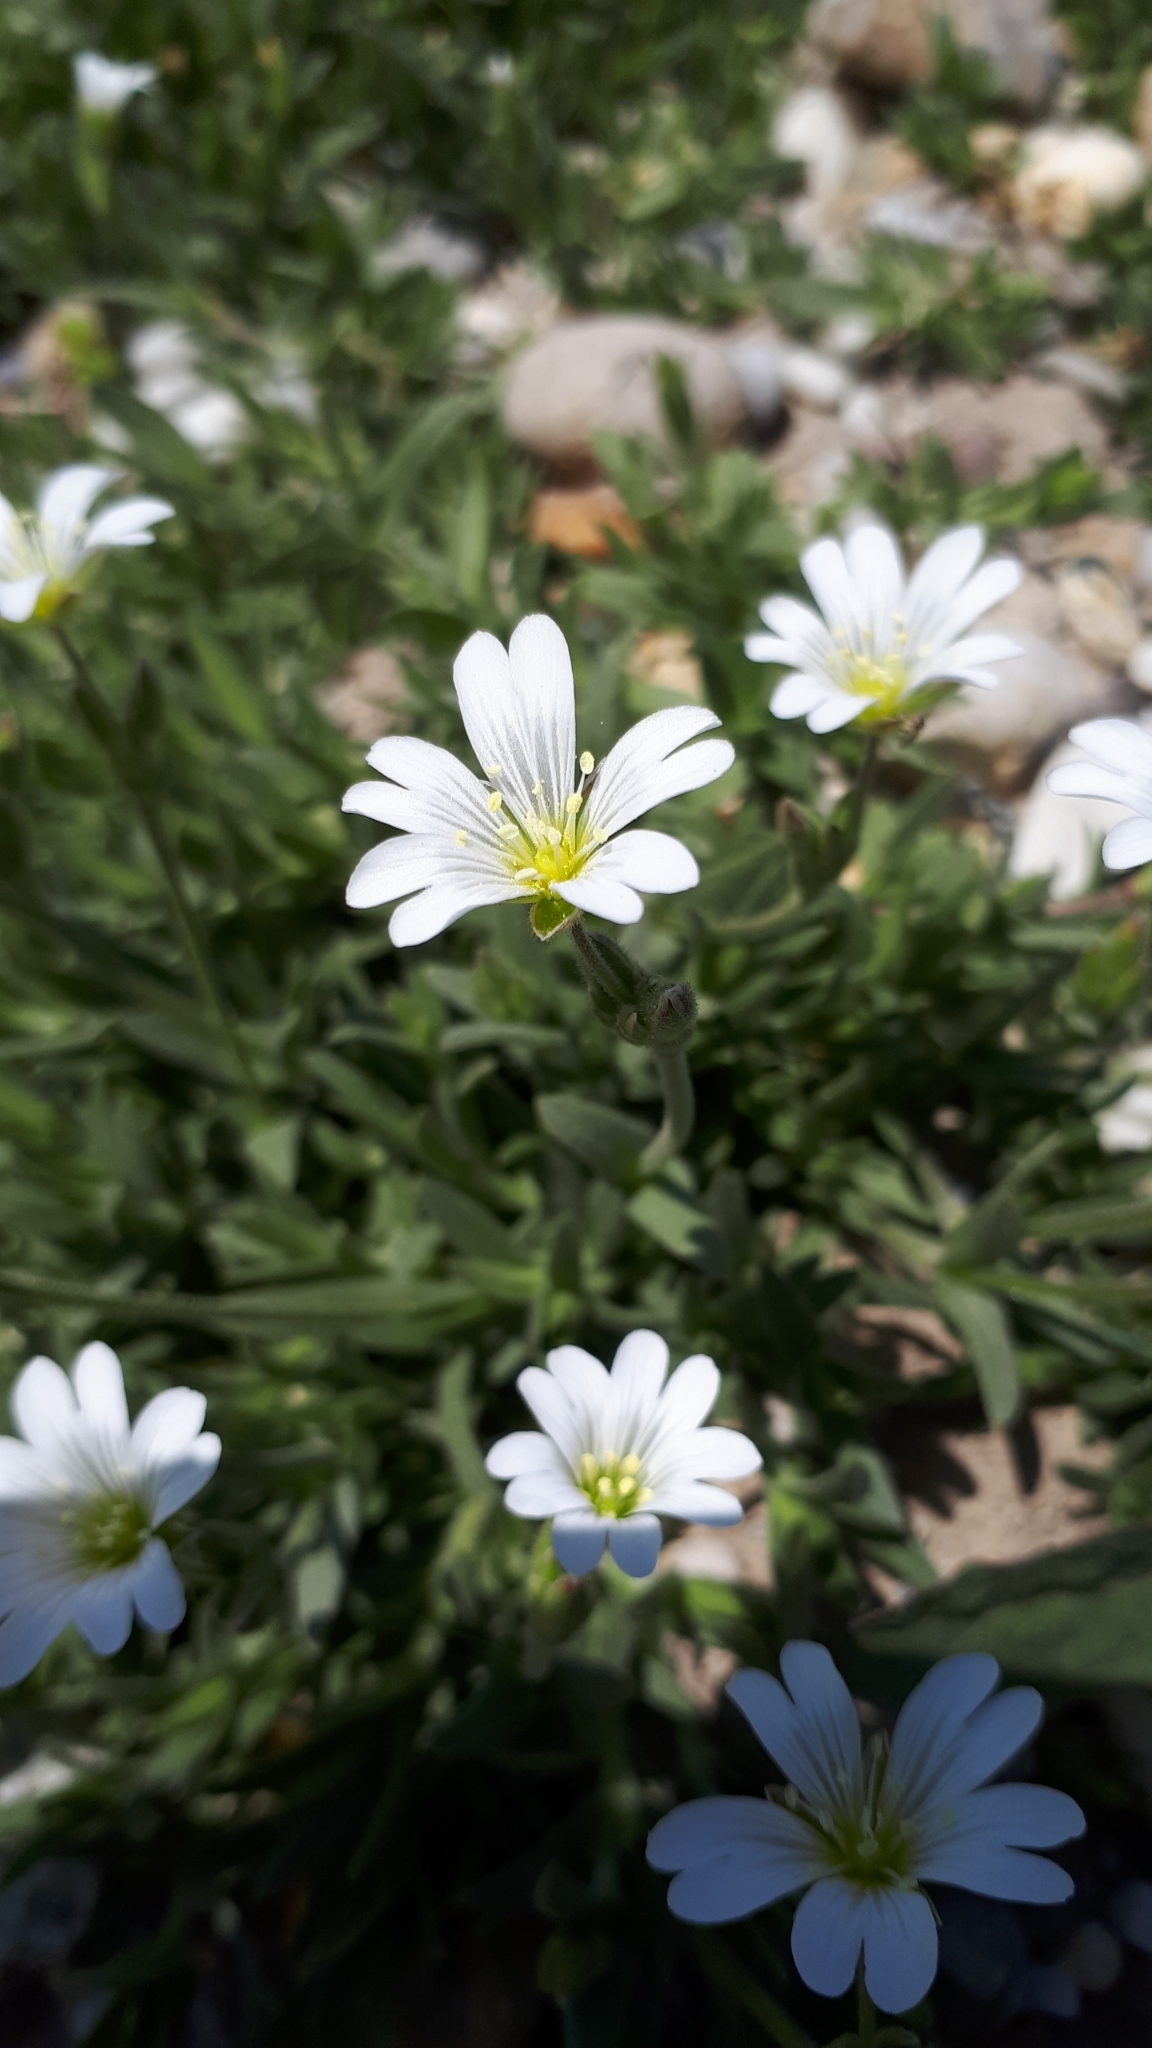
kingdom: Plantae
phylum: Tracheophyta
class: Magnoliopsida
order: Caryophyllales
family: Caryophyllaceae
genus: Cerastium
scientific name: Cerastium arvense
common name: Field mouse-ear
